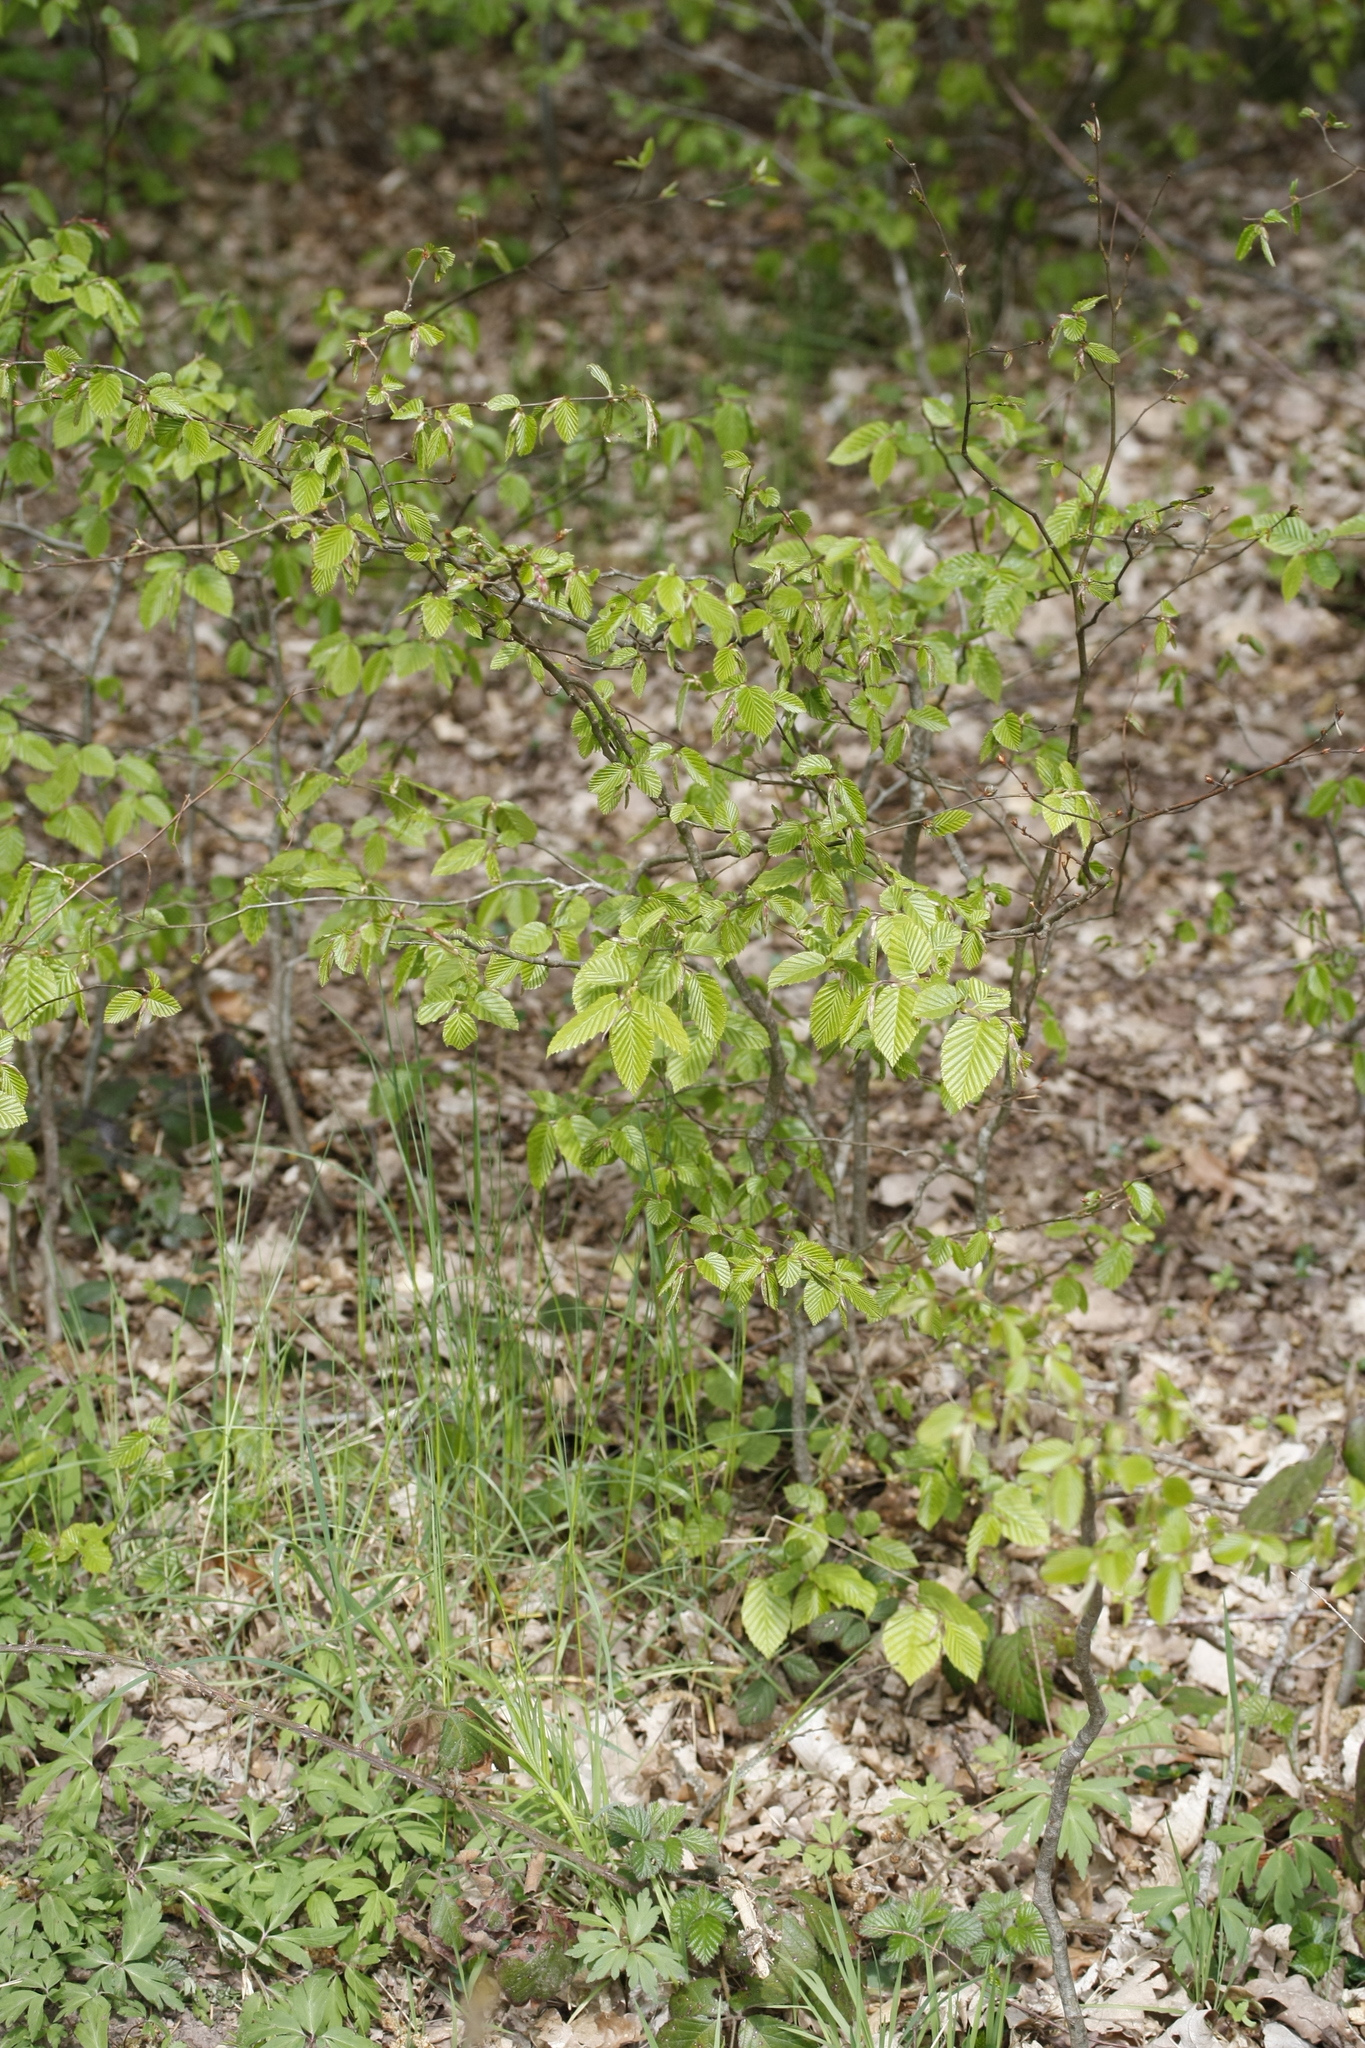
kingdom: Plantae
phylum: Tracheophyta
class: Magnoliopsida
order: Fagales
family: Betulaceae
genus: Carpinus
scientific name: Carpinus betulus
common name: Hornbeam
